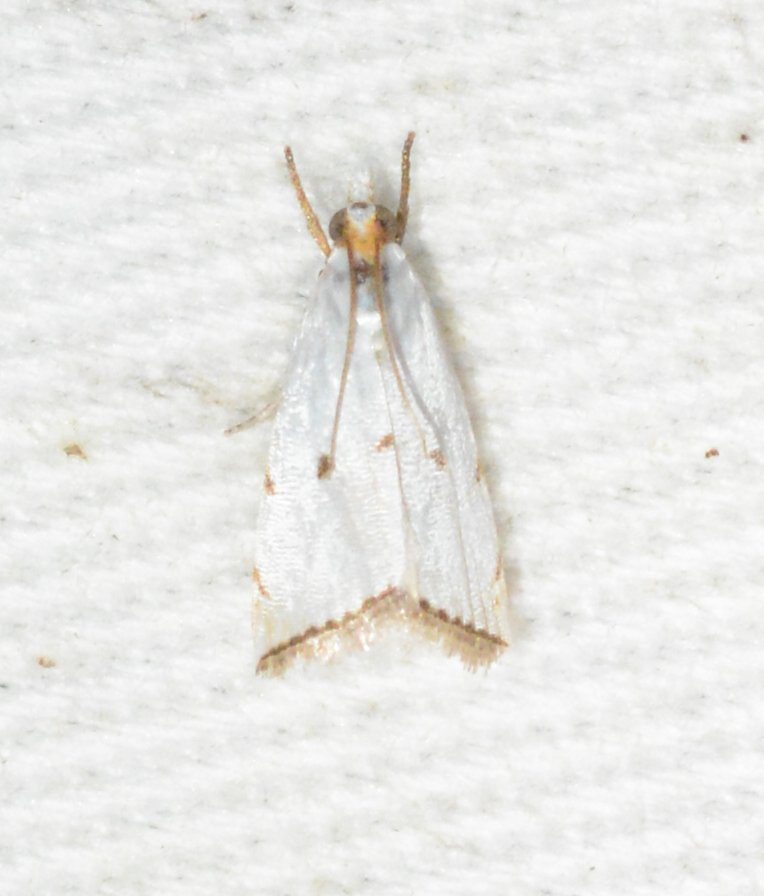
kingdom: Animalia
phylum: Arthropoda
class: Insecta
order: Lepidoptera
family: Crambidae
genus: Argyria
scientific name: Argyria pusillalis
